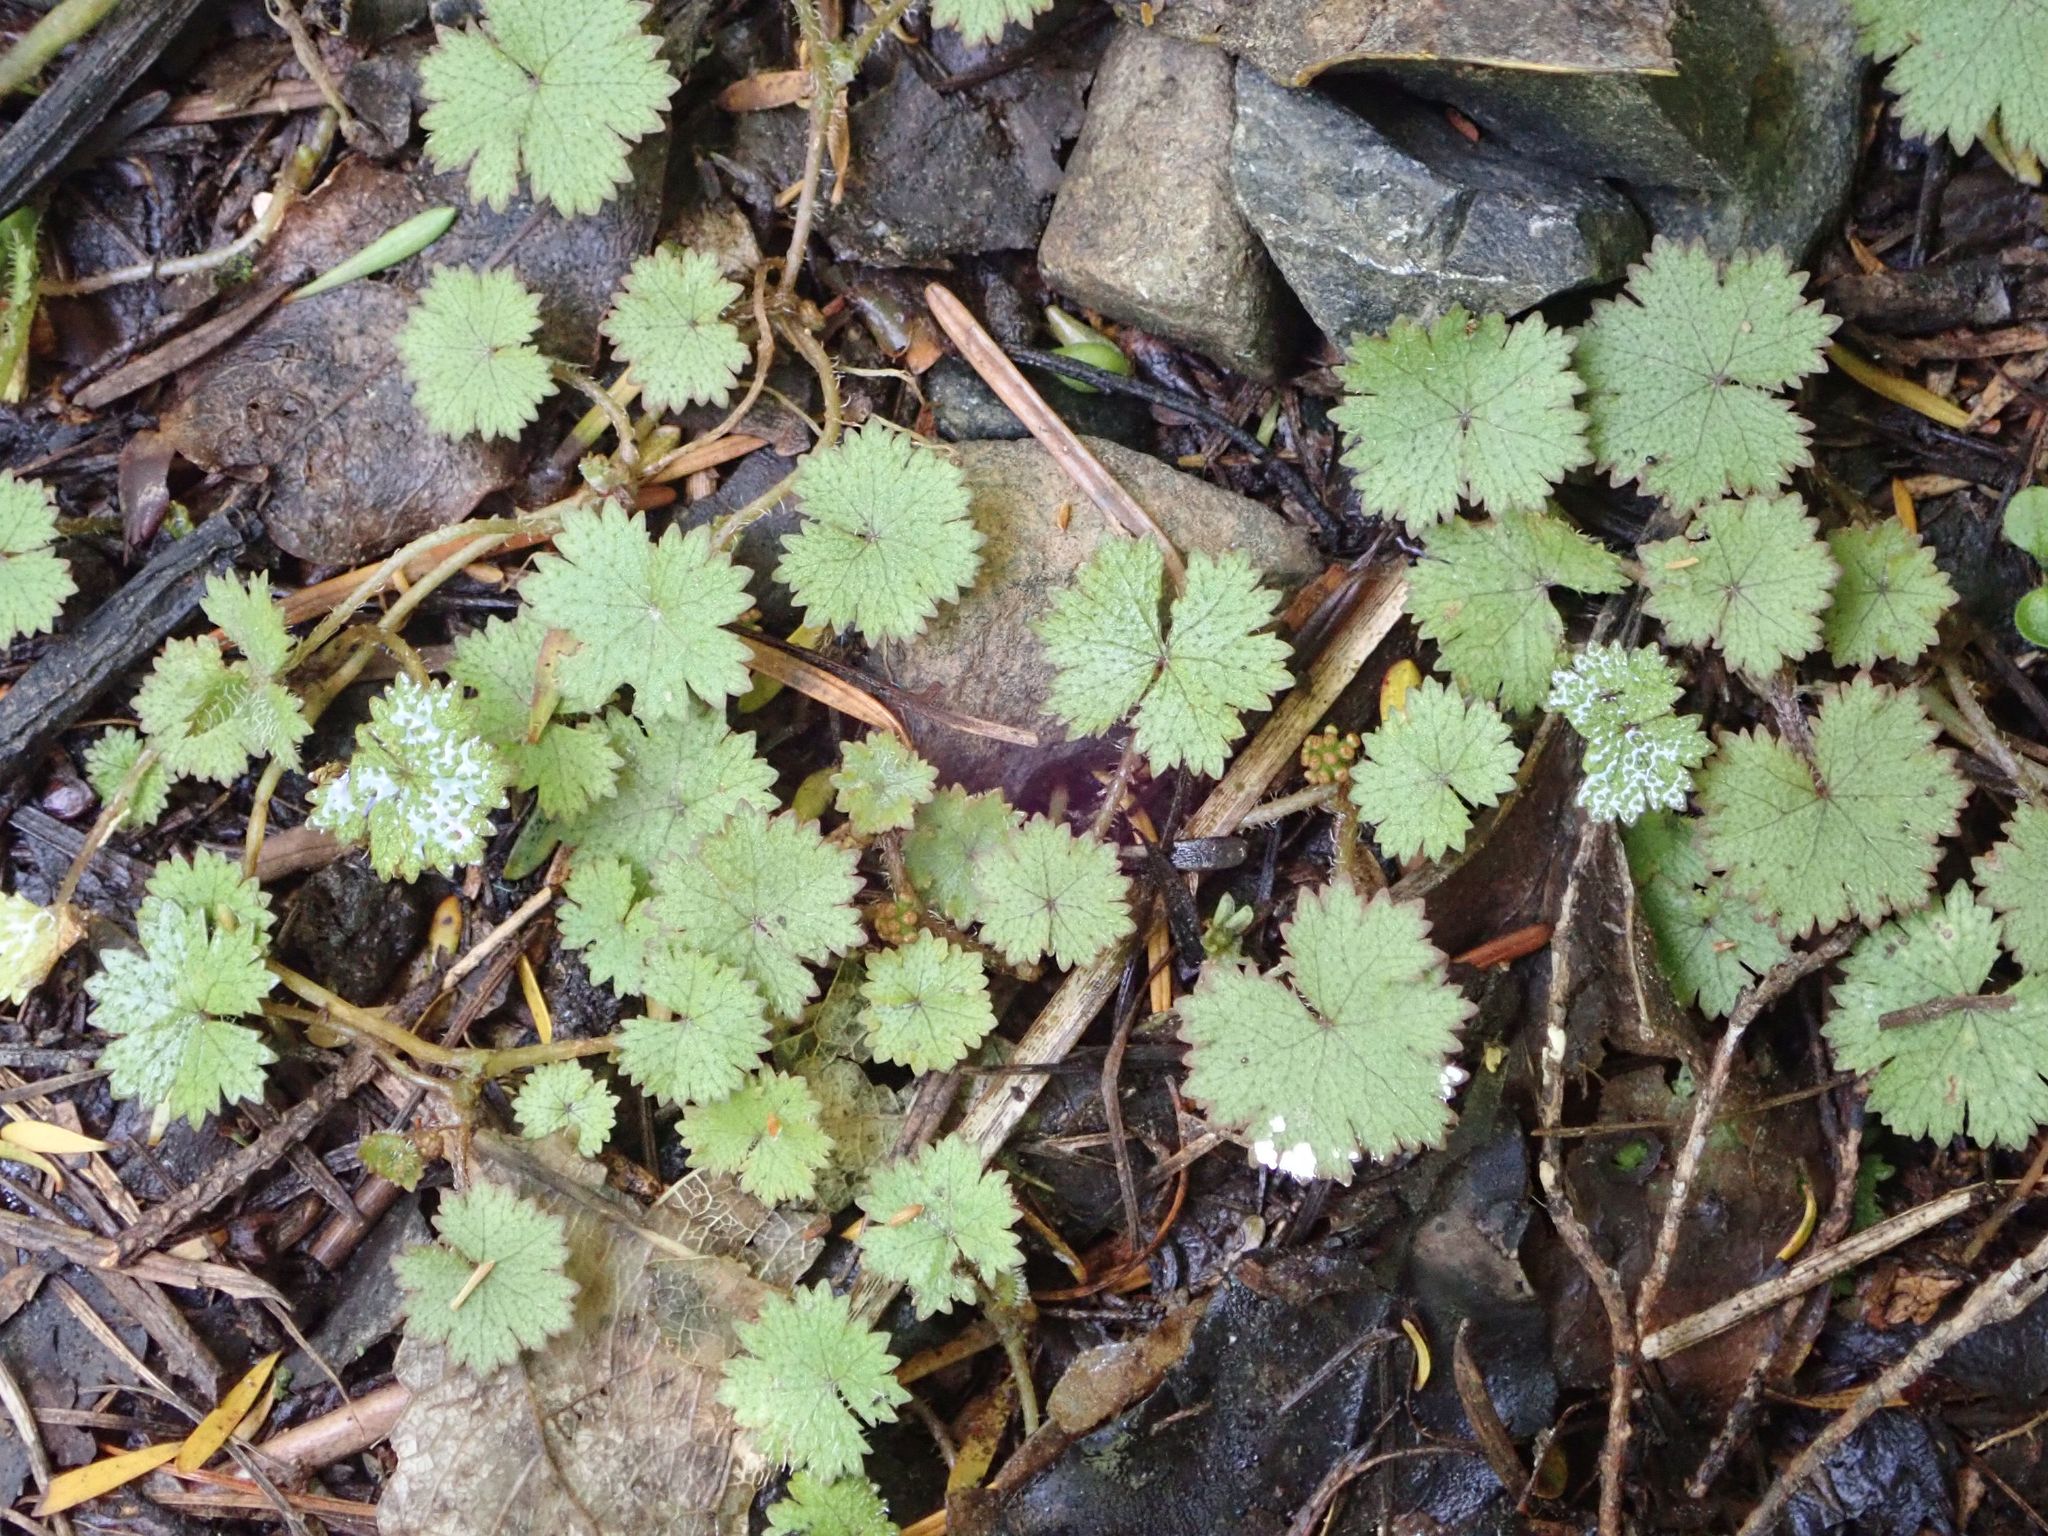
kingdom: Plantae
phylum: Tracheophyta
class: Magnoliopsida
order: Apiales
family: Araliaceae
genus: Hydrocotyle
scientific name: Hydrocotyle moschata
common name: Hairy pennywort
